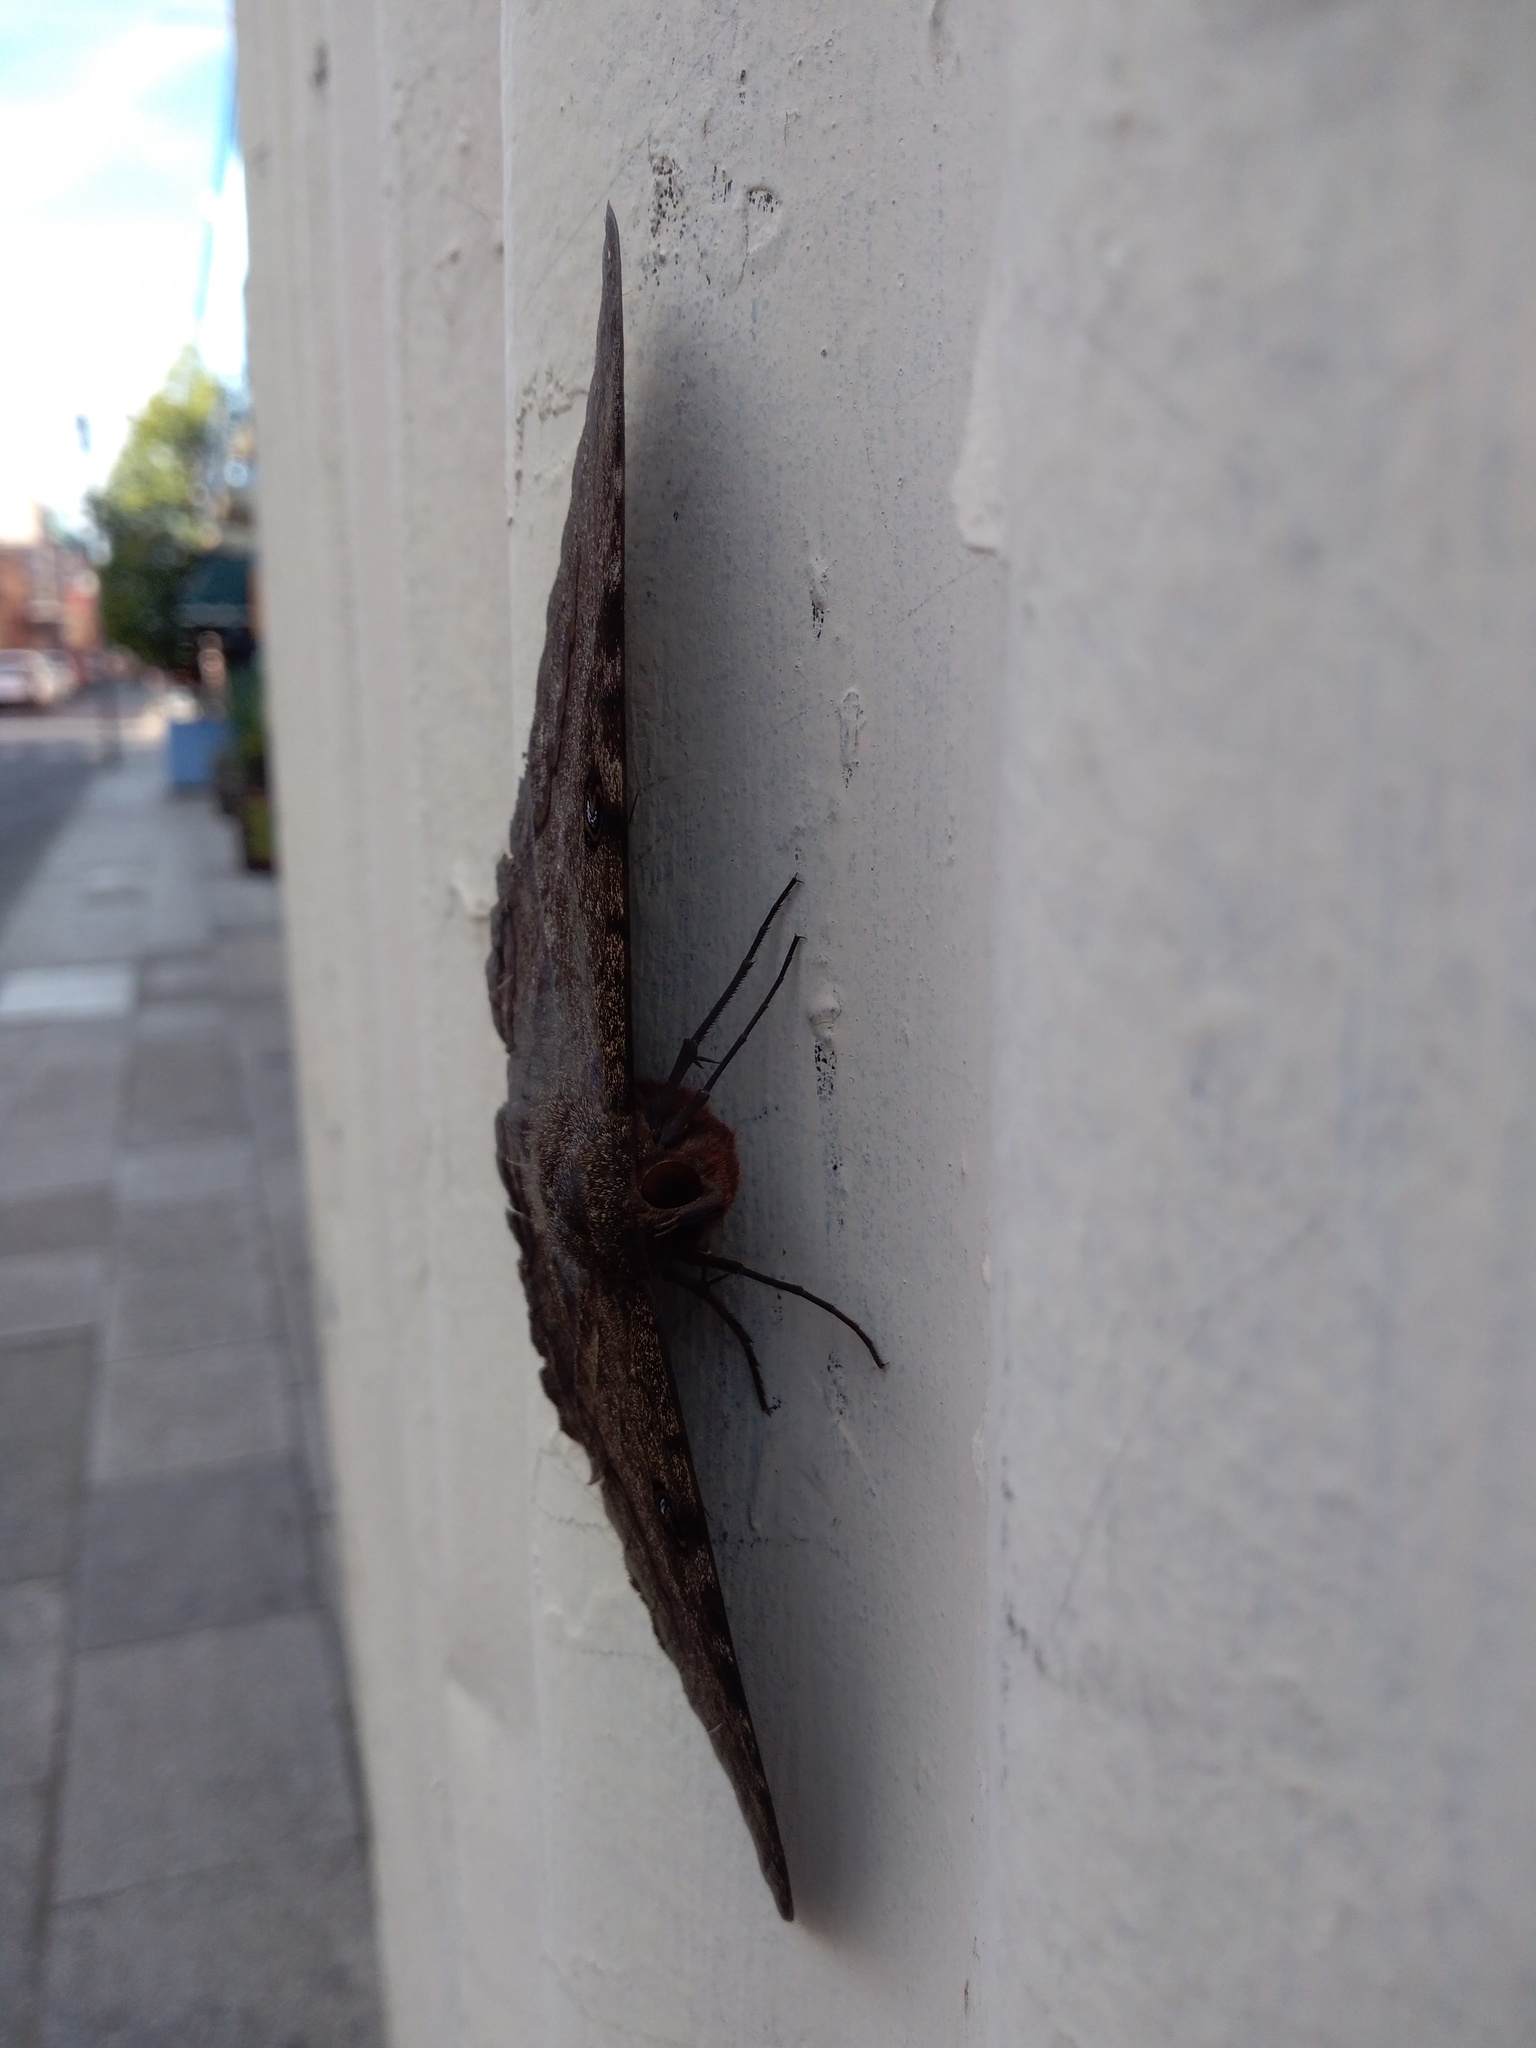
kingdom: Animalia
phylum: Arthropoda
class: Insecta
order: Lepidoptera
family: Erebidae
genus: Ascalapha
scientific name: Ascalapha odorata
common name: Black witch
